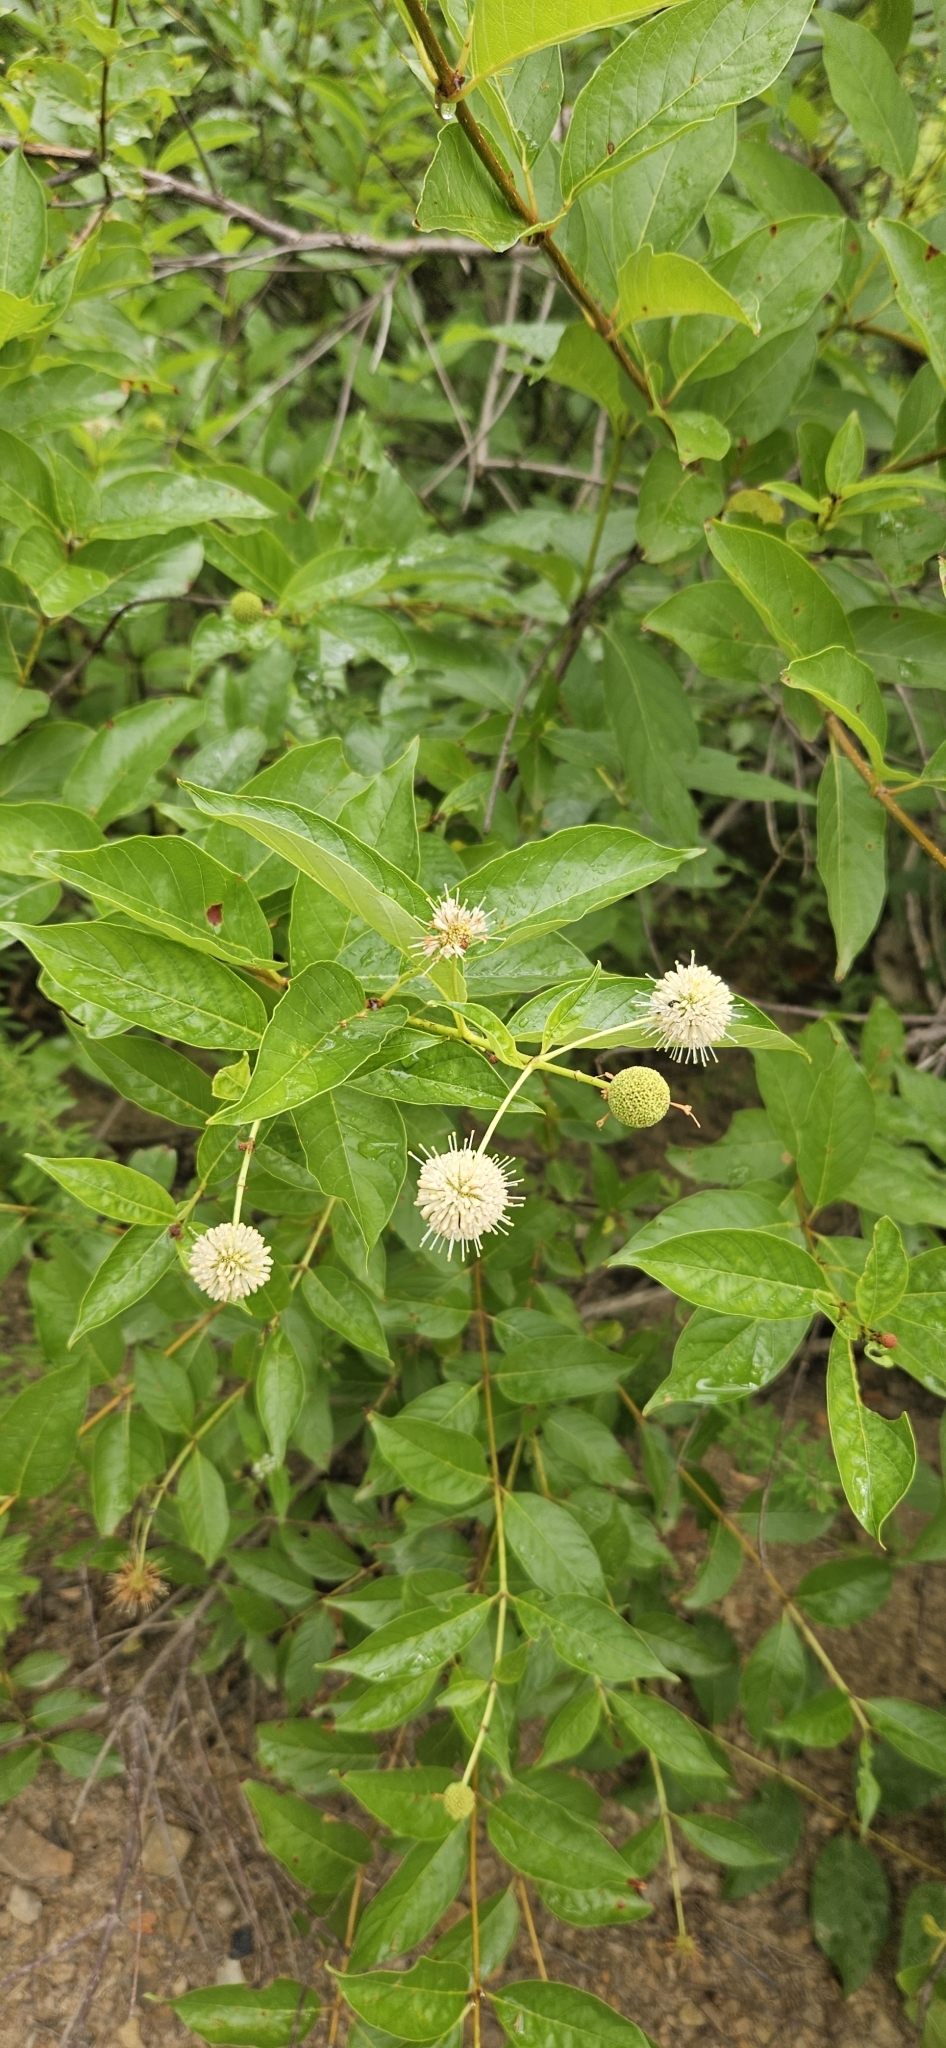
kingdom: Plantae
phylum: Tracheophyta
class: Magnoliopsida
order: Gentianales
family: Rubiaceae
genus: Cephalanthus
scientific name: Cephalanthus occidentalis
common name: Button-willow
